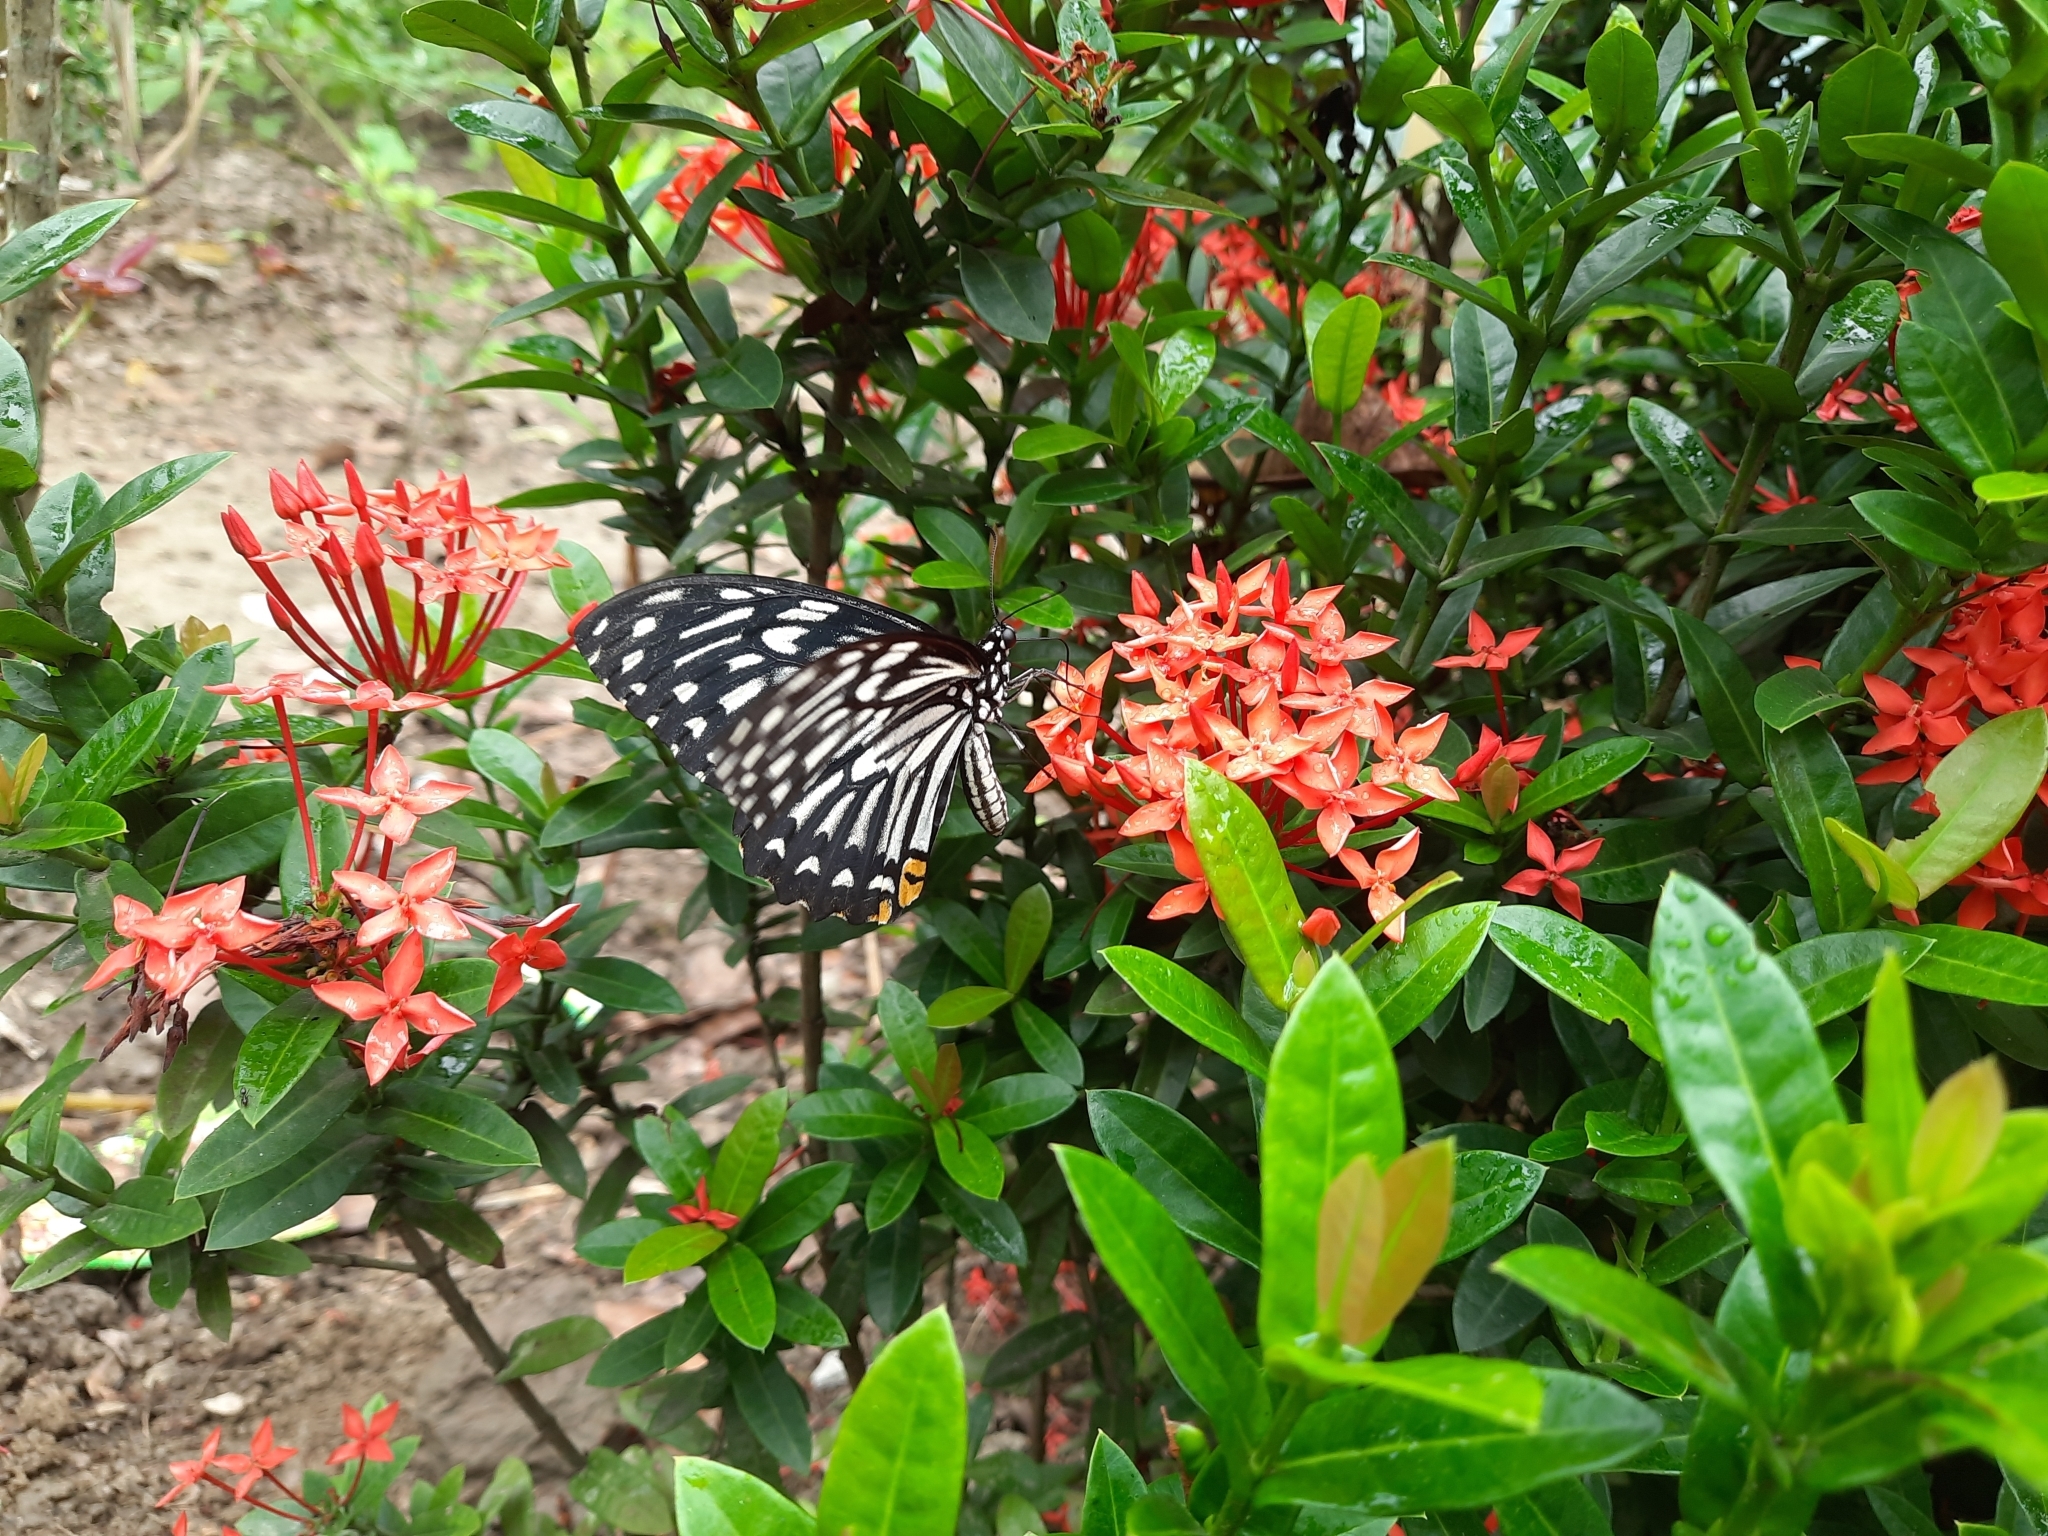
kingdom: Animalia
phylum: Arthropoda
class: Insecta
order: Lepidoptera
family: Papilionidae
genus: Chilasa
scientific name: Chilasa clytia
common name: Common mime
